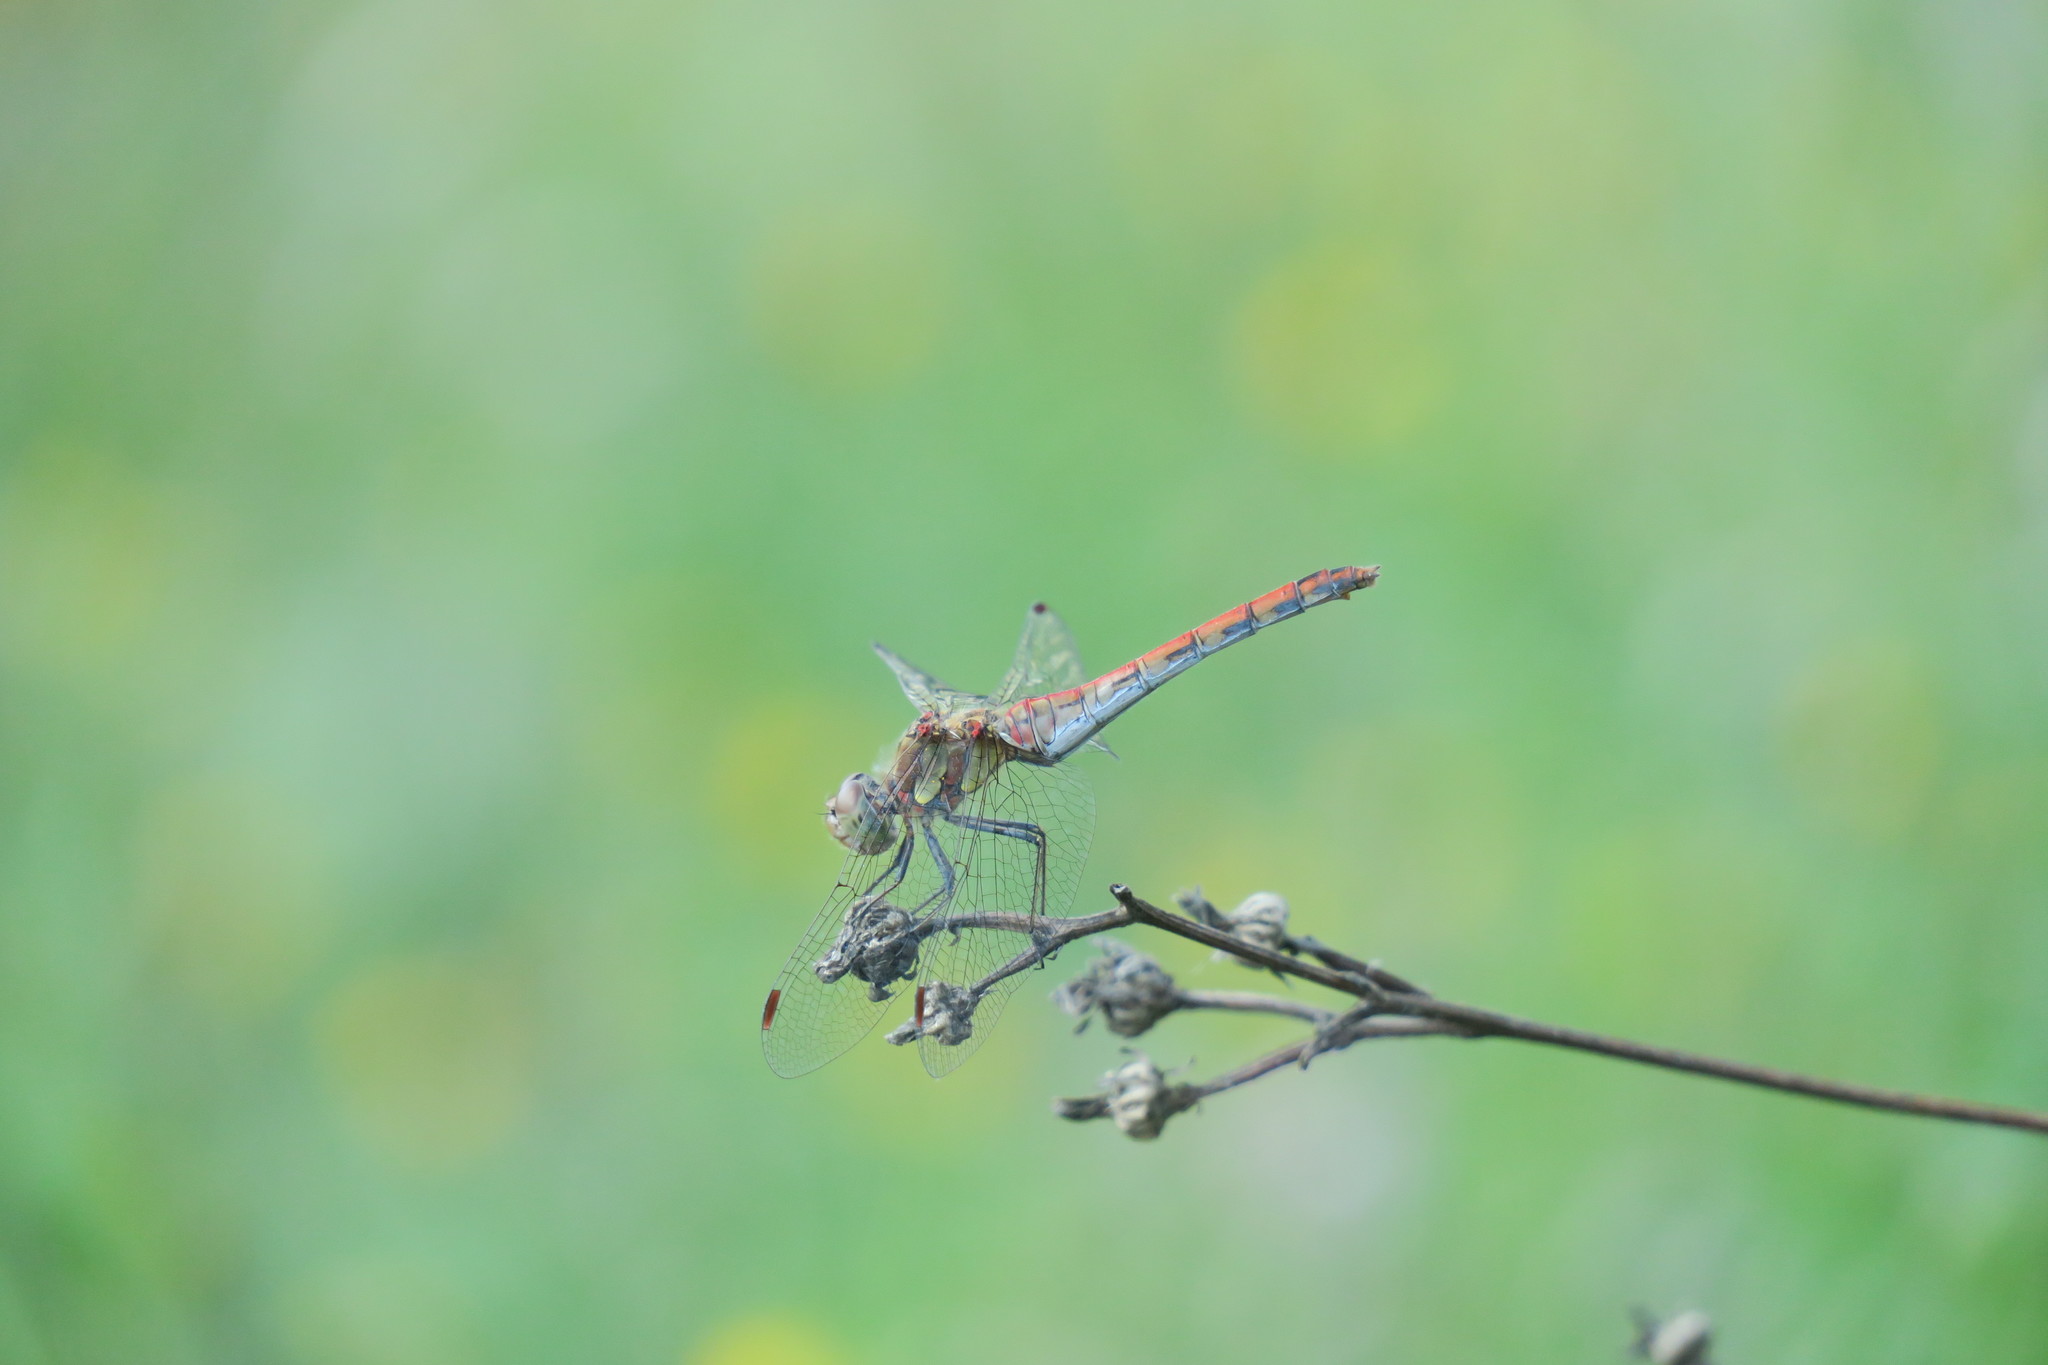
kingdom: Animalia
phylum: Arthropoda
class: Insecta
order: Odonata
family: Libellulidae
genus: Sympetrum
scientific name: Sympetrum striolatum
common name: Common darter
